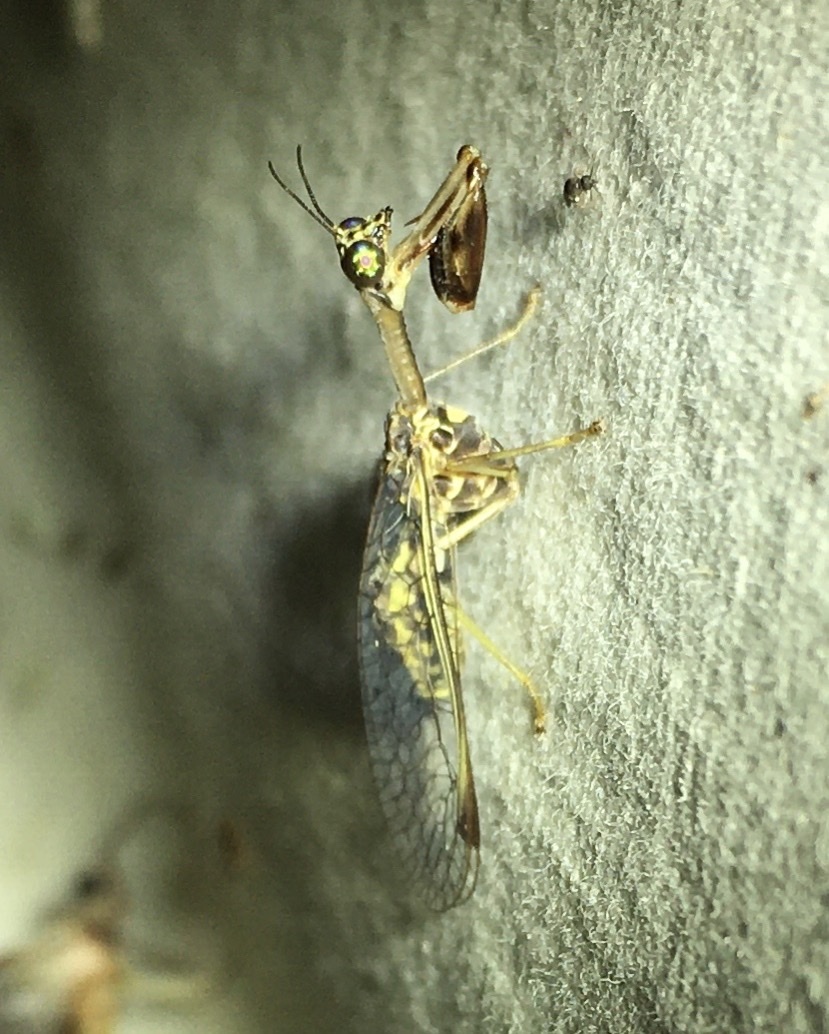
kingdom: Animalia
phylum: Arthropoda
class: Insecta
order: Neuroptera
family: Mantispidae
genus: Dicromantispa
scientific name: Dicromantispa sayi
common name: Say's mantidfly
